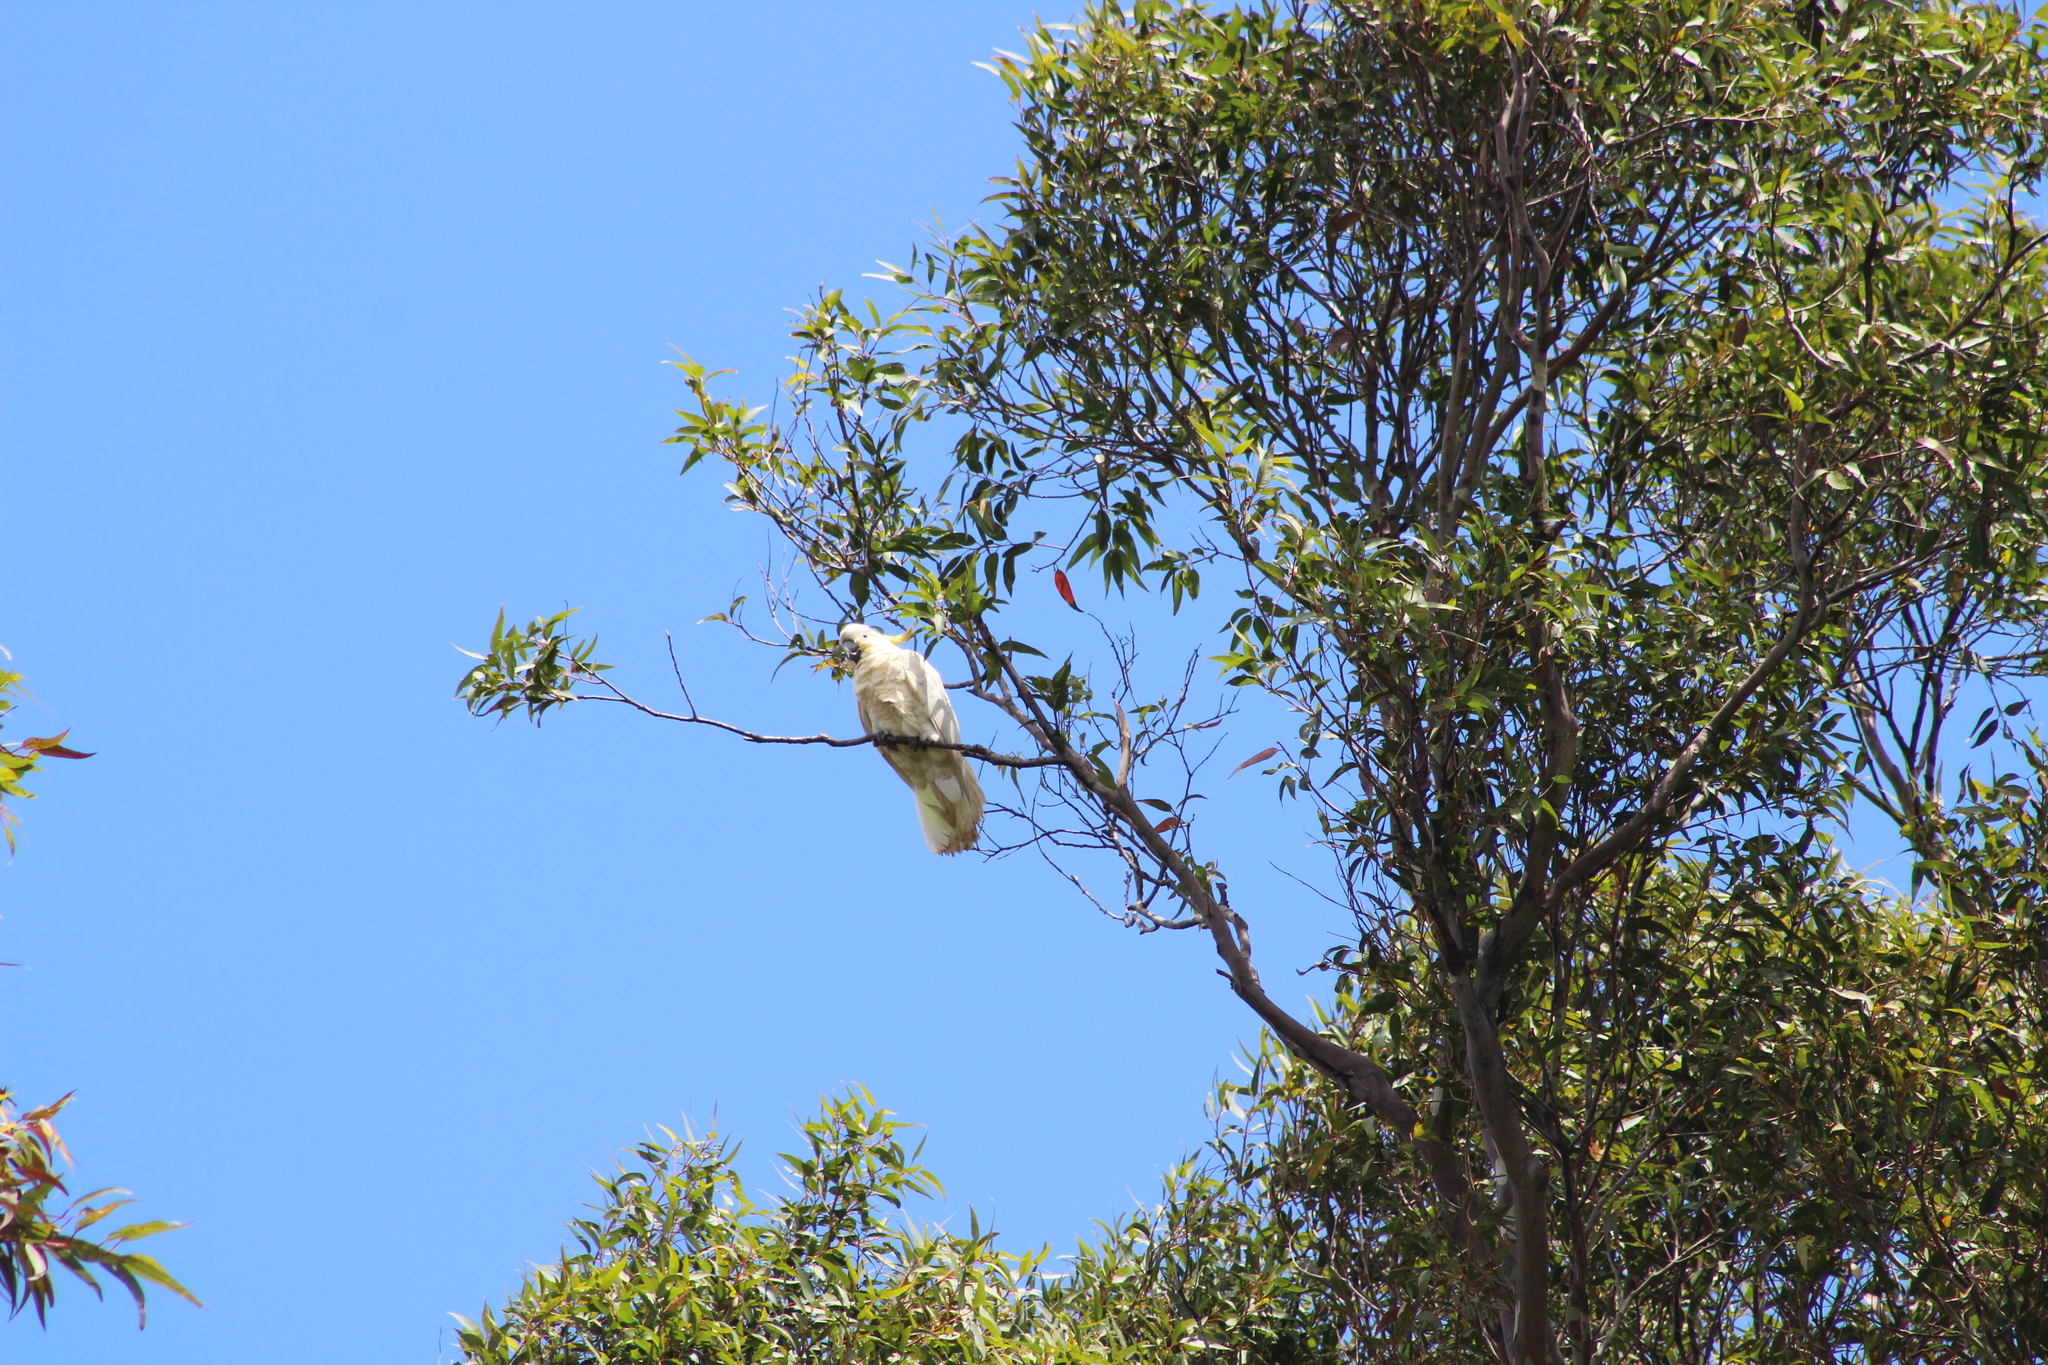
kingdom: Animalia
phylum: Chordata
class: Aves
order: Psittaciformes
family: Psittacidae
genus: Cacatua
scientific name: Cacatua galerita
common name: Sulphur-crested cockatoo
